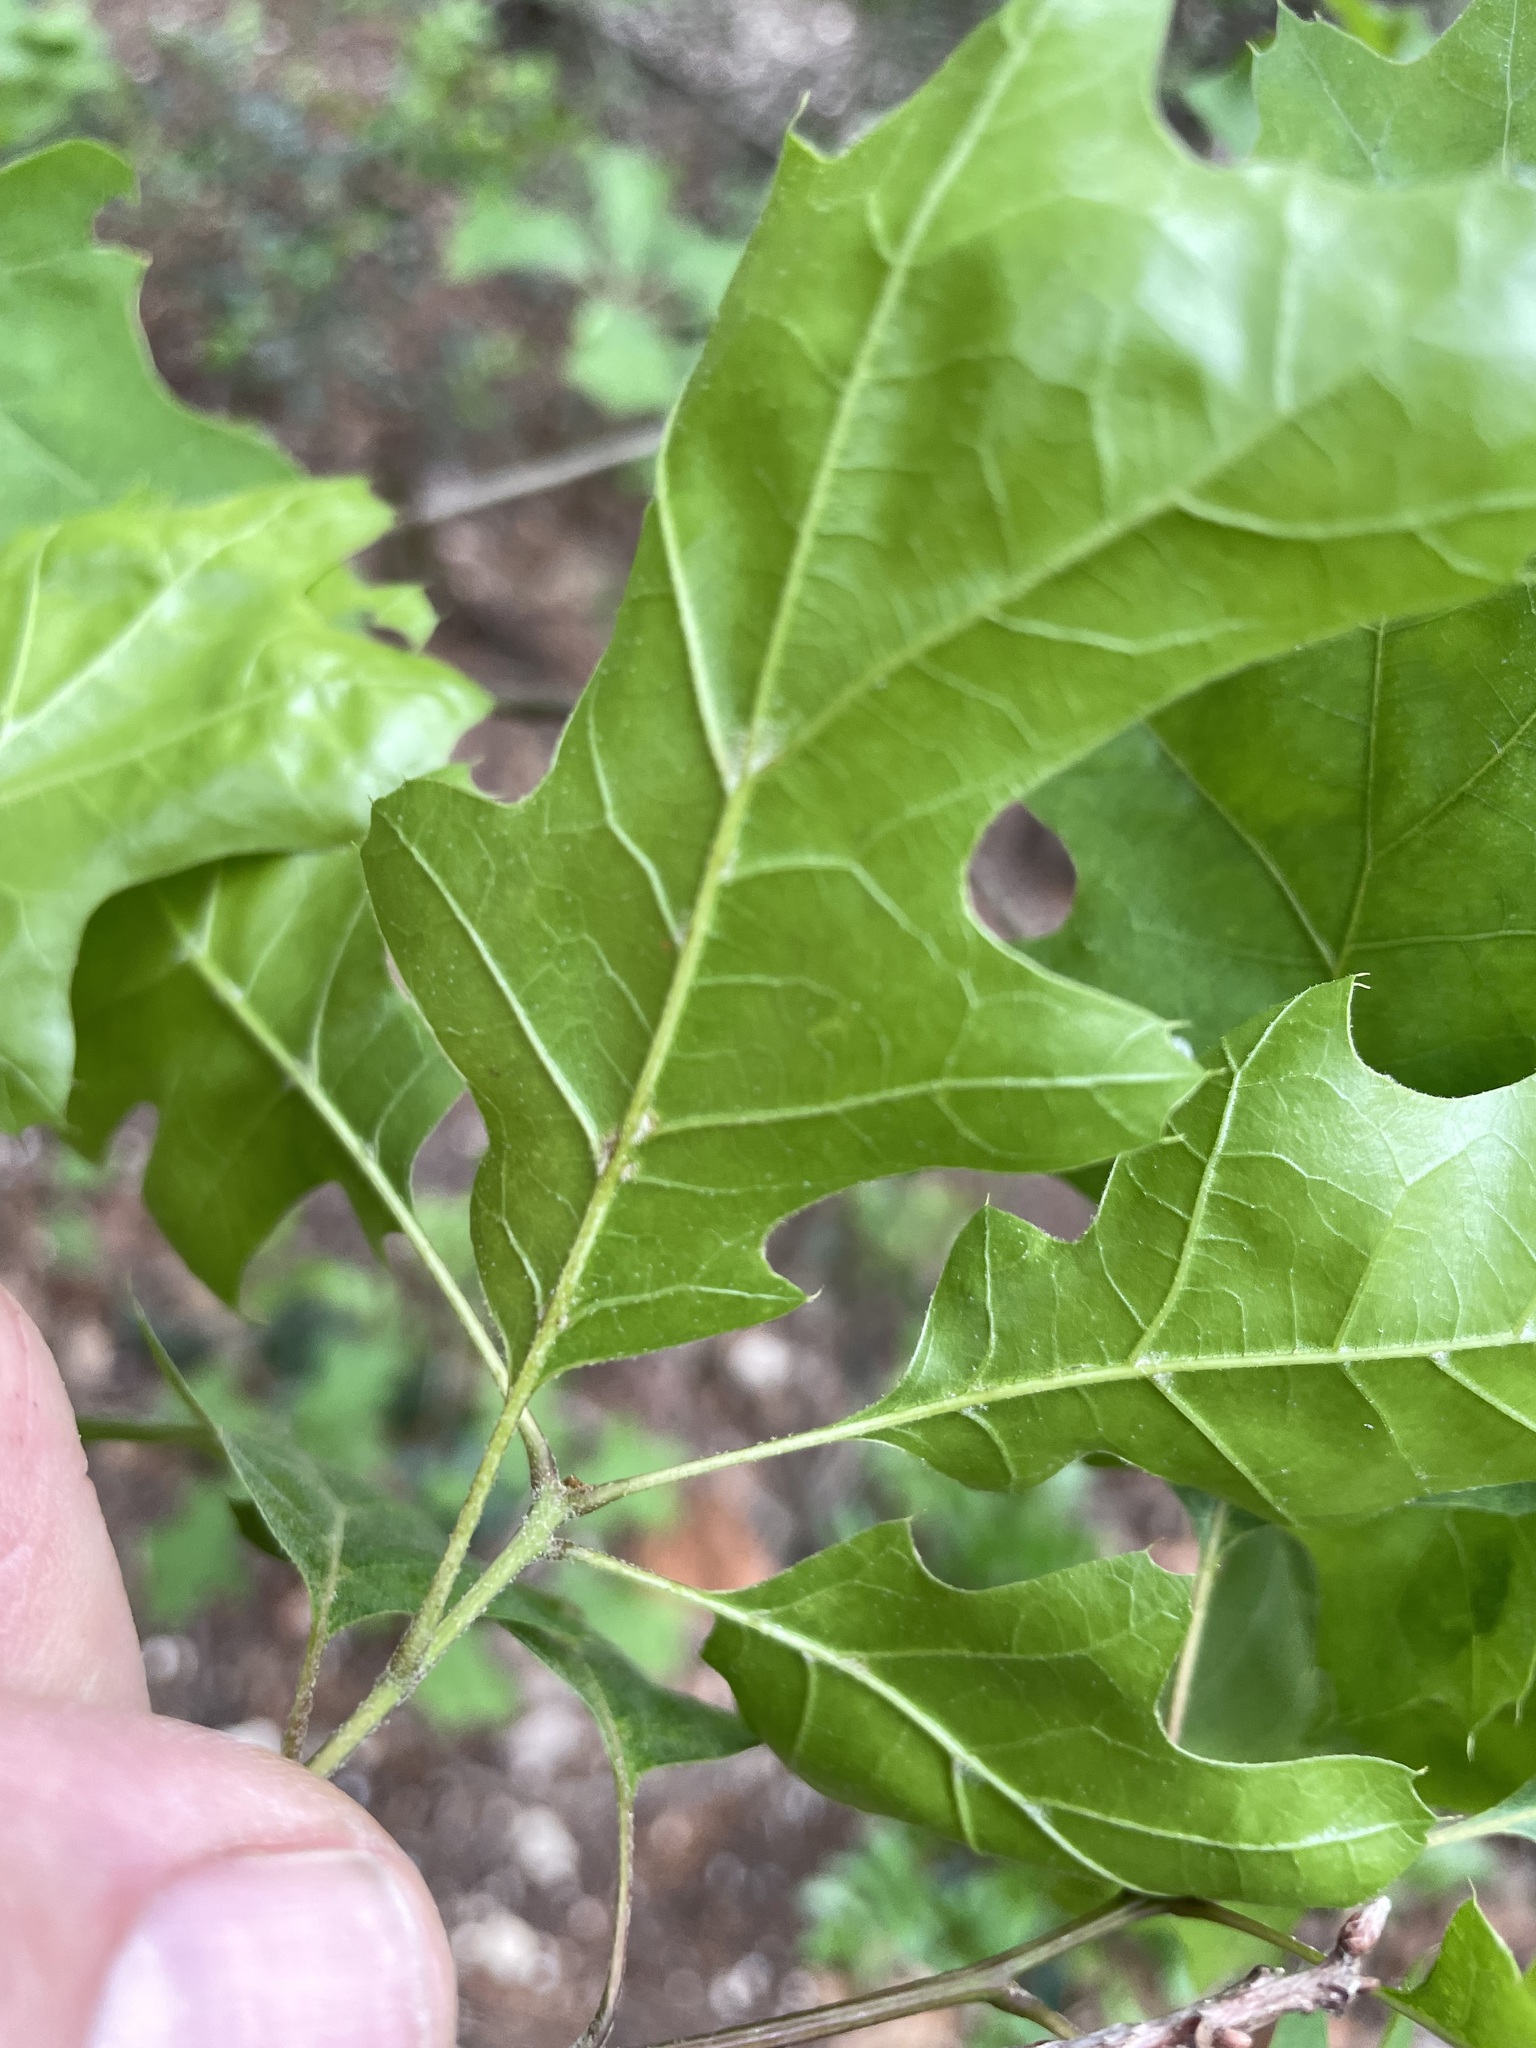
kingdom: Plantae
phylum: Tracheophyta
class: Magnoliopsida
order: Fagales
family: Fagaceae
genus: Quercus
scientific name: Quercus buckleyi
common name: Buckley oak
